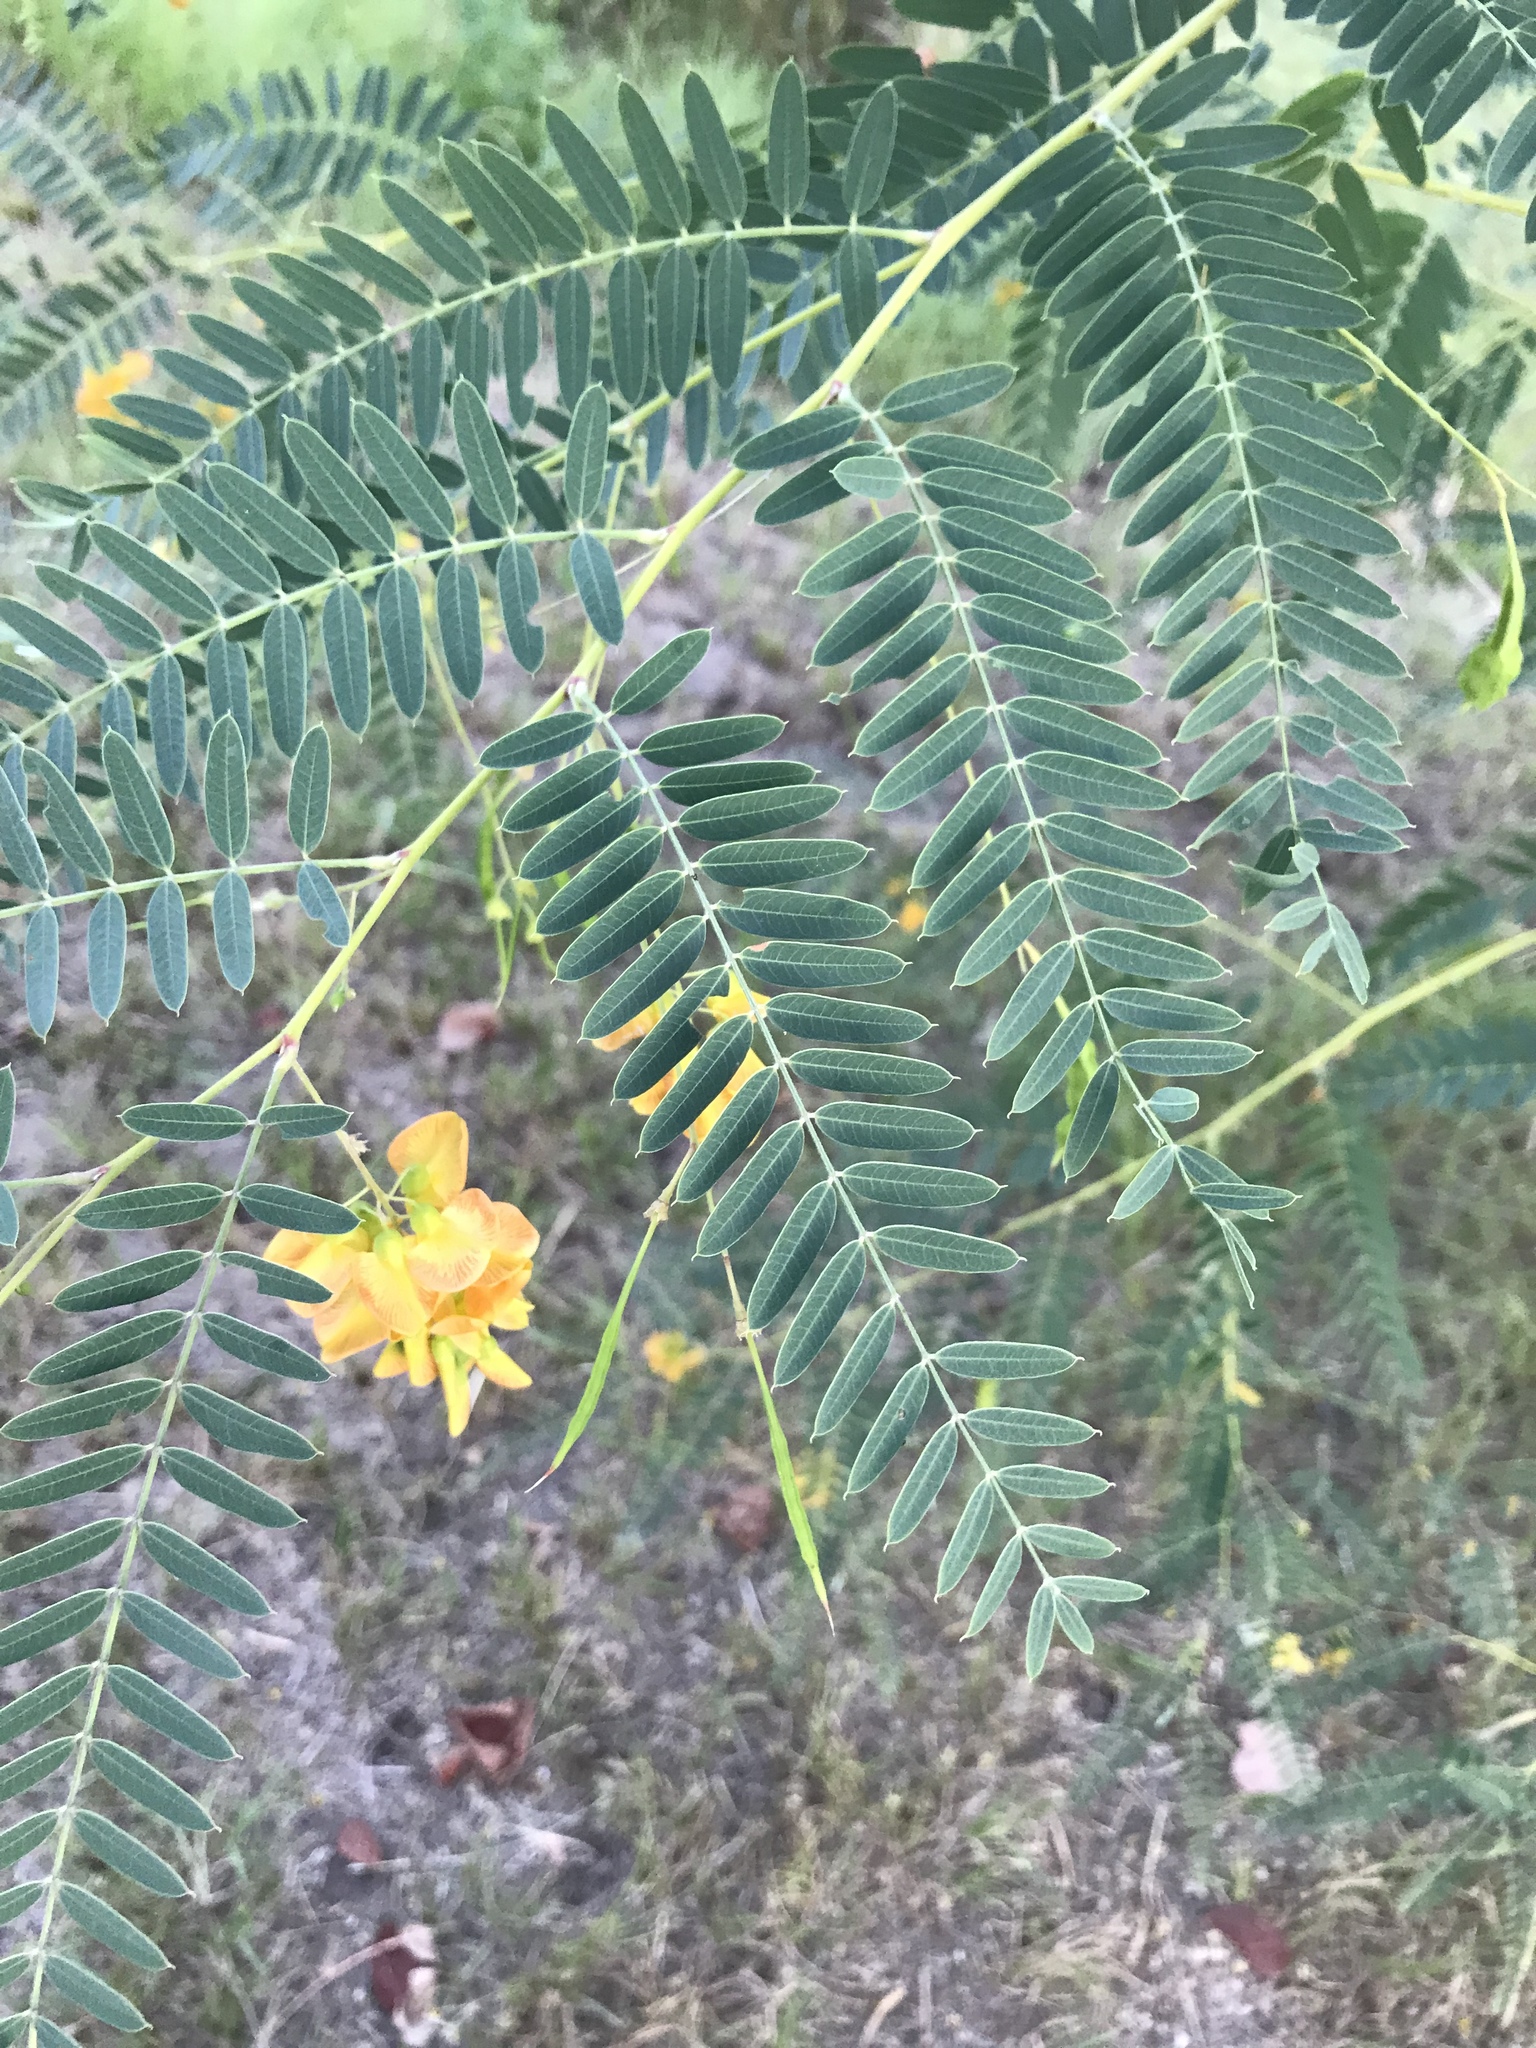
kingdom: Plantae
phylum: Tracheophyta
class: Magnoliopsida
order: Fabales
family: Fabaceae
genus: Sesbania
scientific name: Sesbania drummondii
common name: Poison-bean
